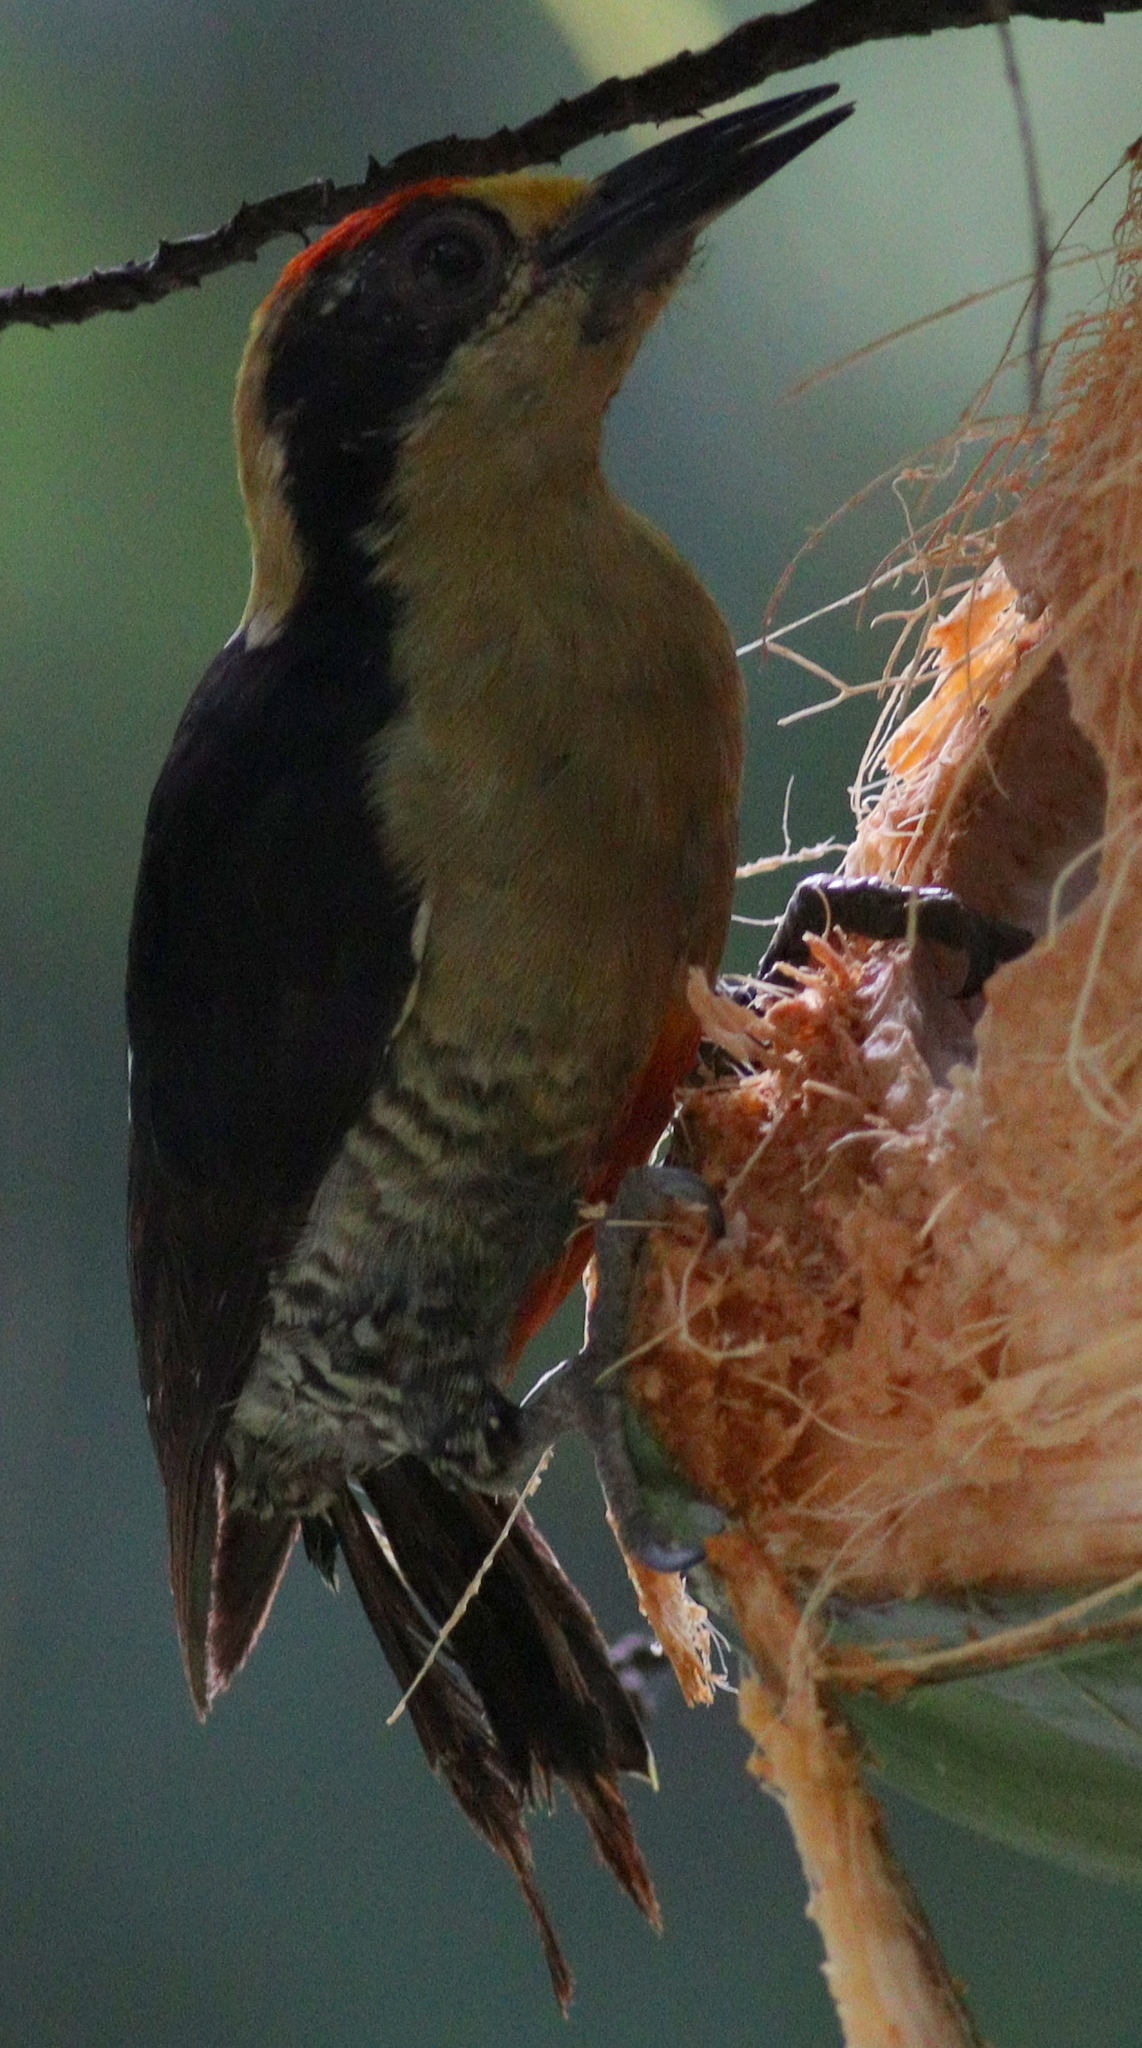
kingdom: Animalia
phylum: Chordata
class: Aves
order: Piciformes
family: Picidae
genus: Melanerpes
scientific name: Melanerpes chrysauchen
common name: Golden-naped woodpecker
